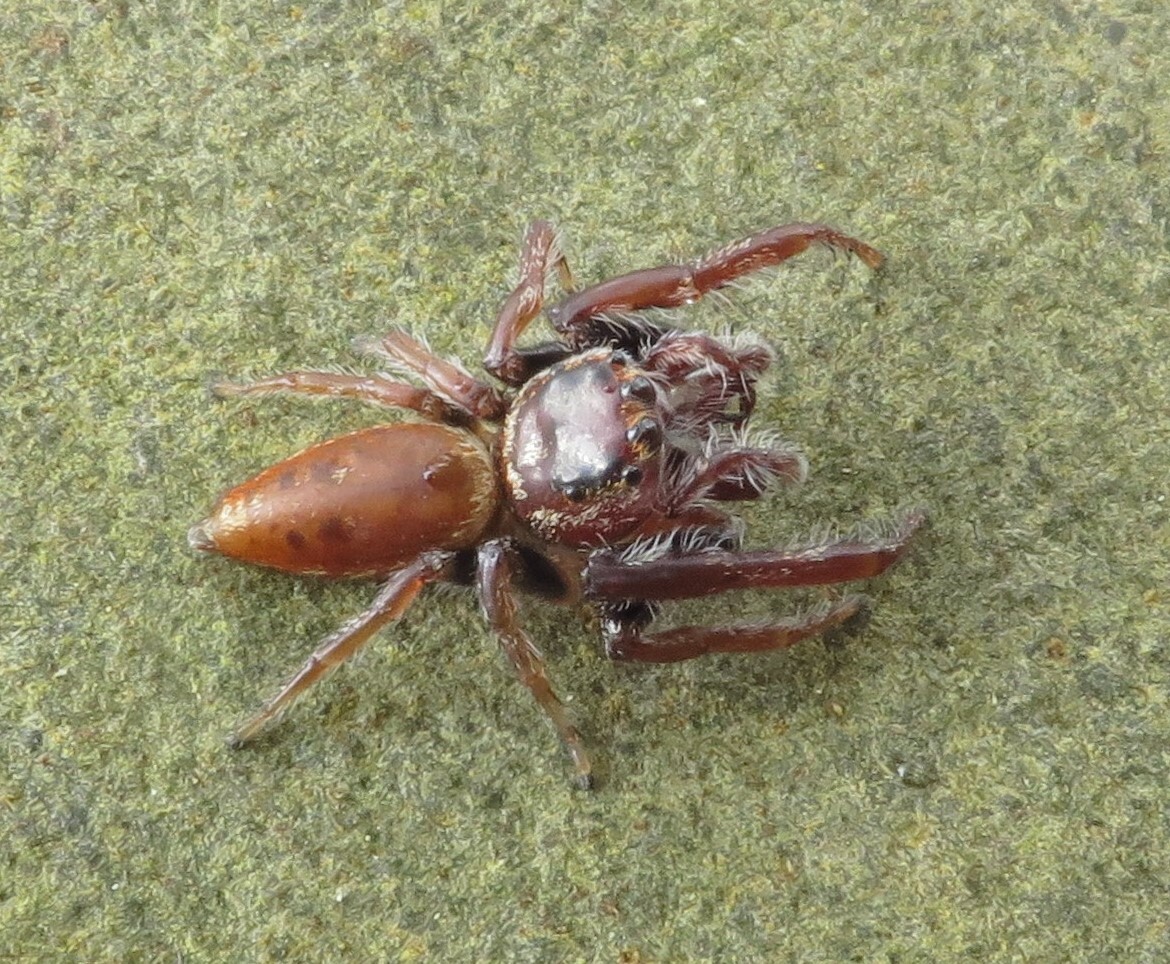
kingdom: Animalia
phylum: Arthropoda
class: Arachnida
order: Araneae
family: Salticidae
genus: Opisthoncus
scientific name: Opisthoncus polyphemus
